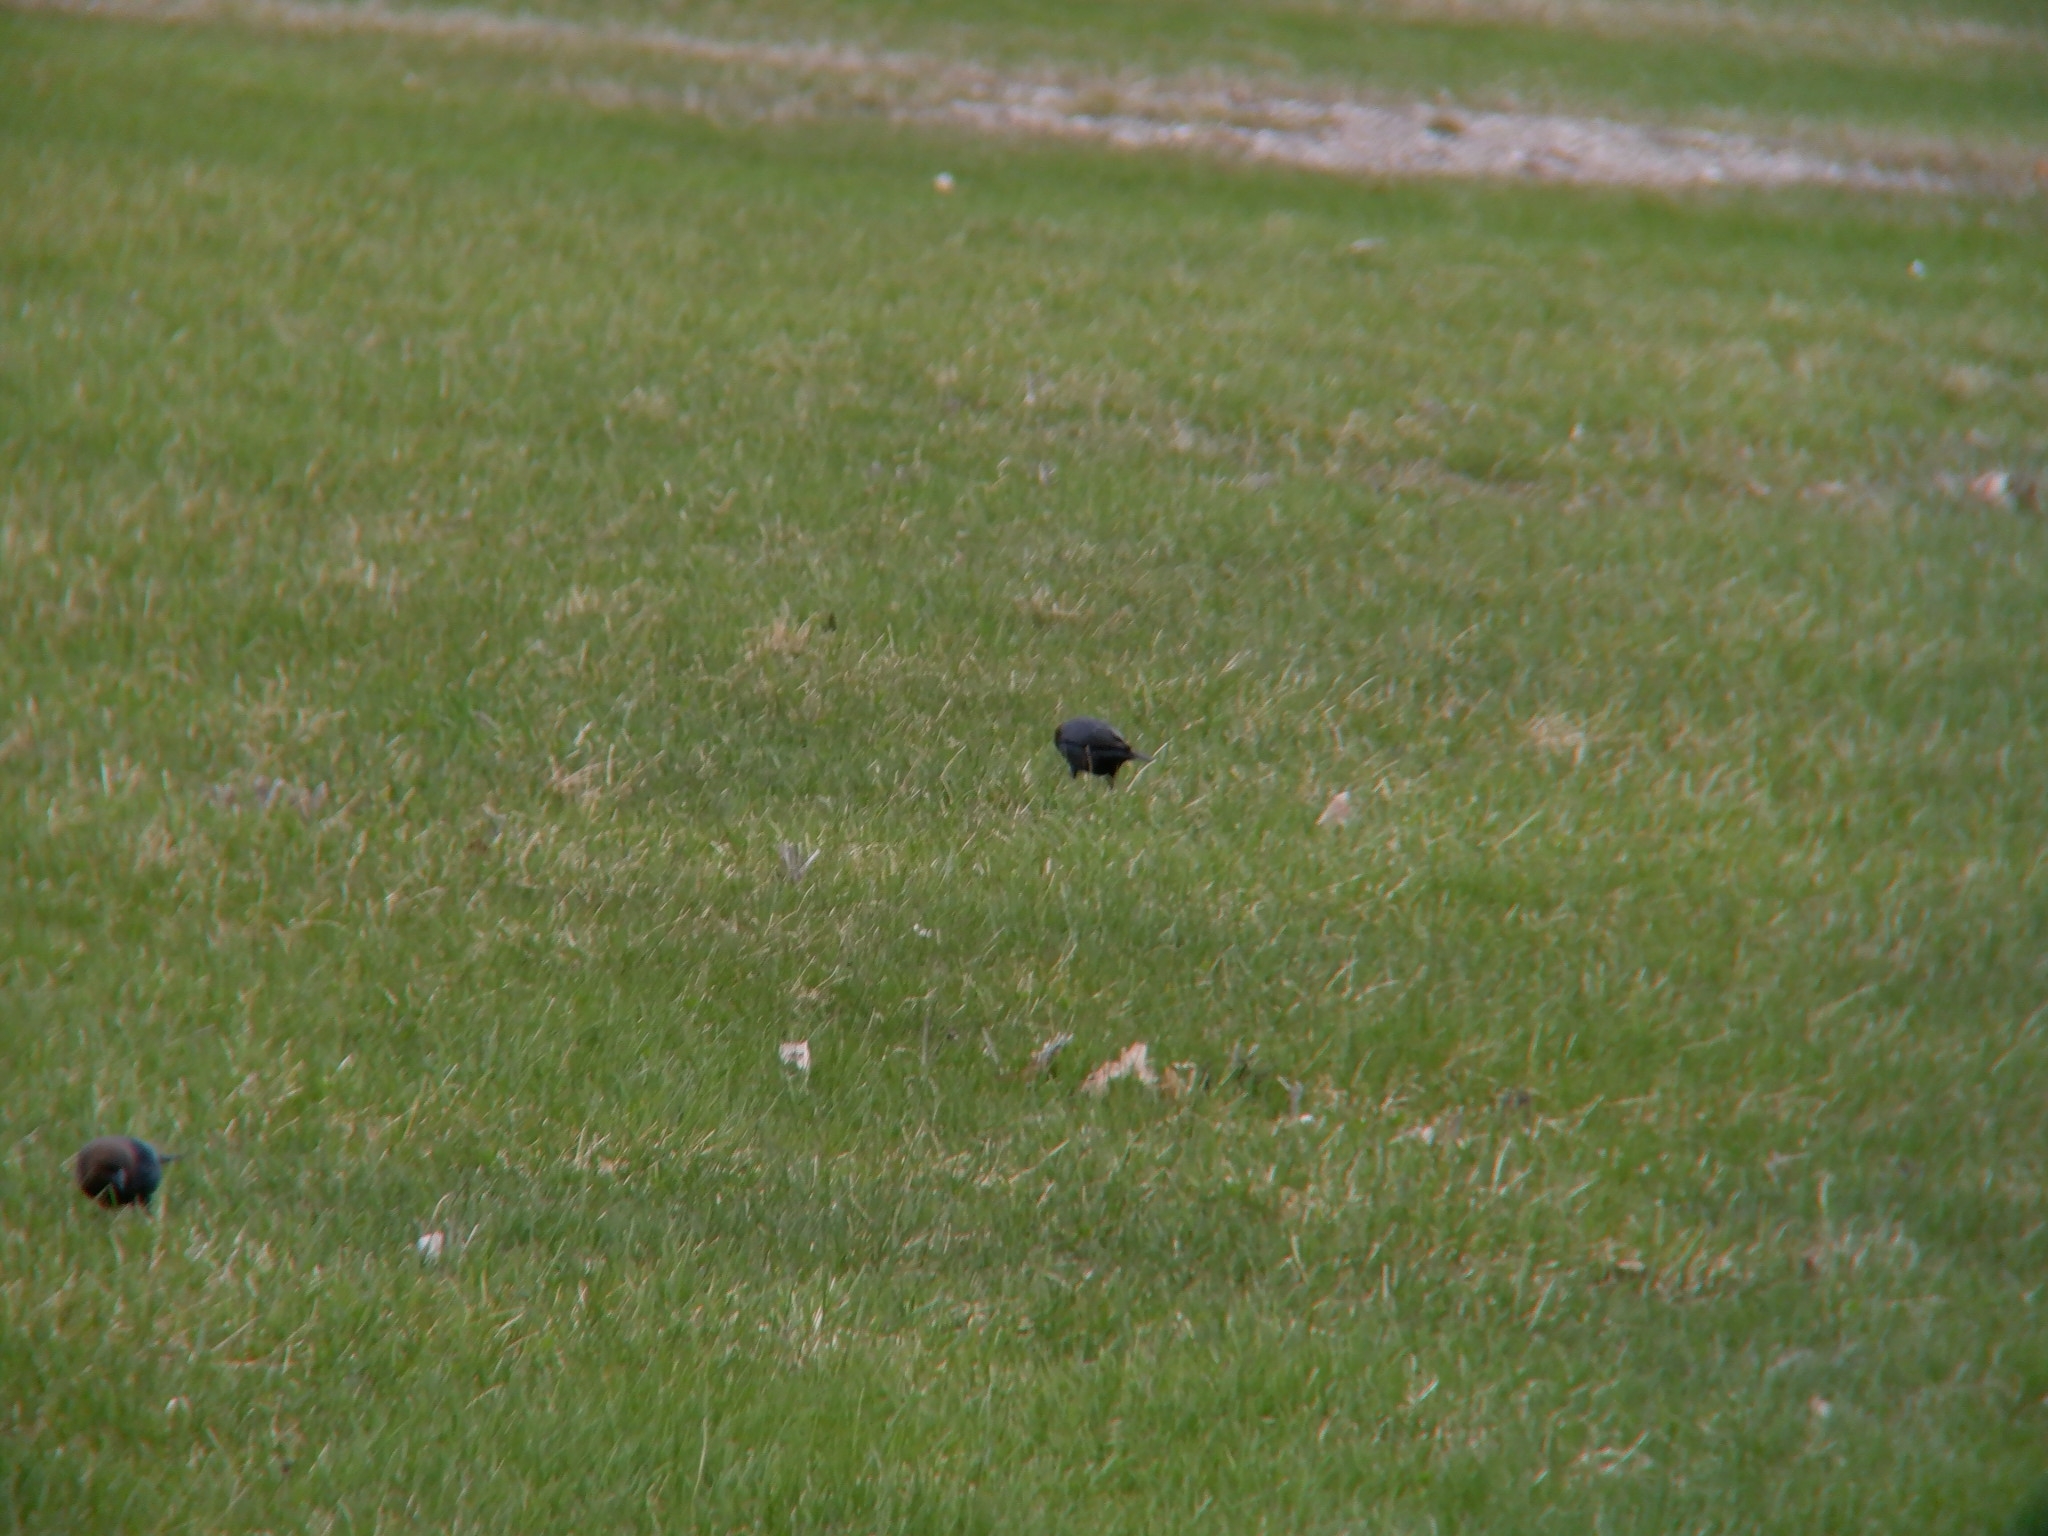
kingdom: Animalia
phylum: Chordata
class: Aves
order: Passeriformes
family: Icteridae
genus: Molothrus
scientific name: Molothrus ater
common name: Brown-headed cowbird
